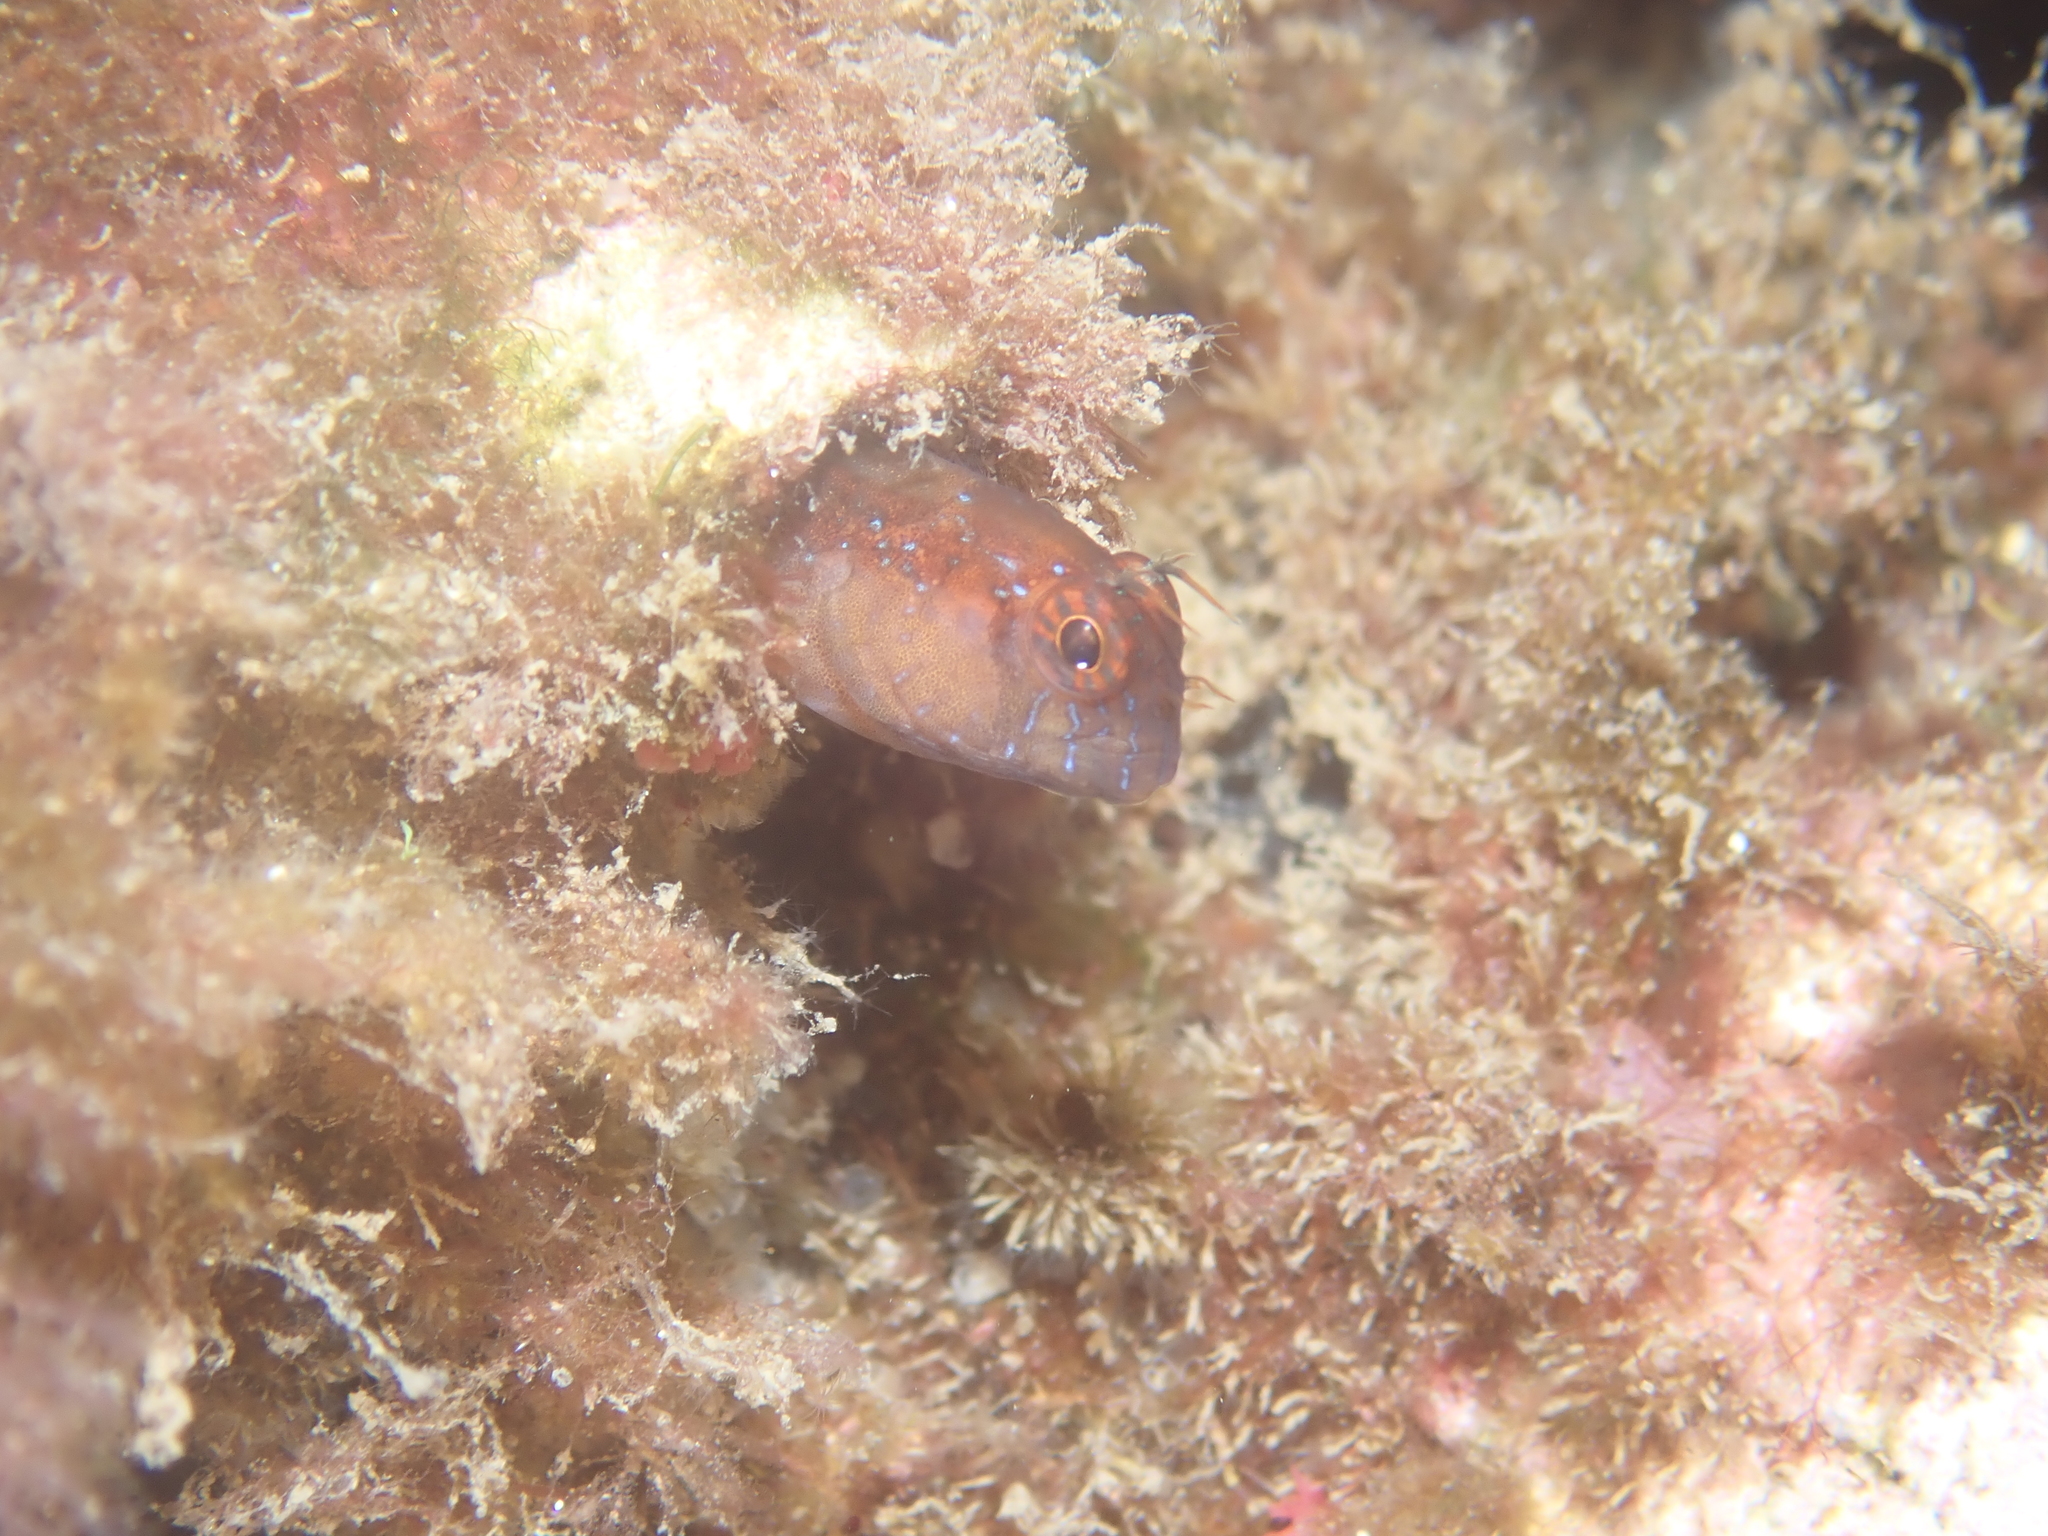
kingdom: Animalia
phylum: Chordata
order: Perciformes
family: Blenniidae
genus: Parablennius
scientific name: Parablennius rouxi
